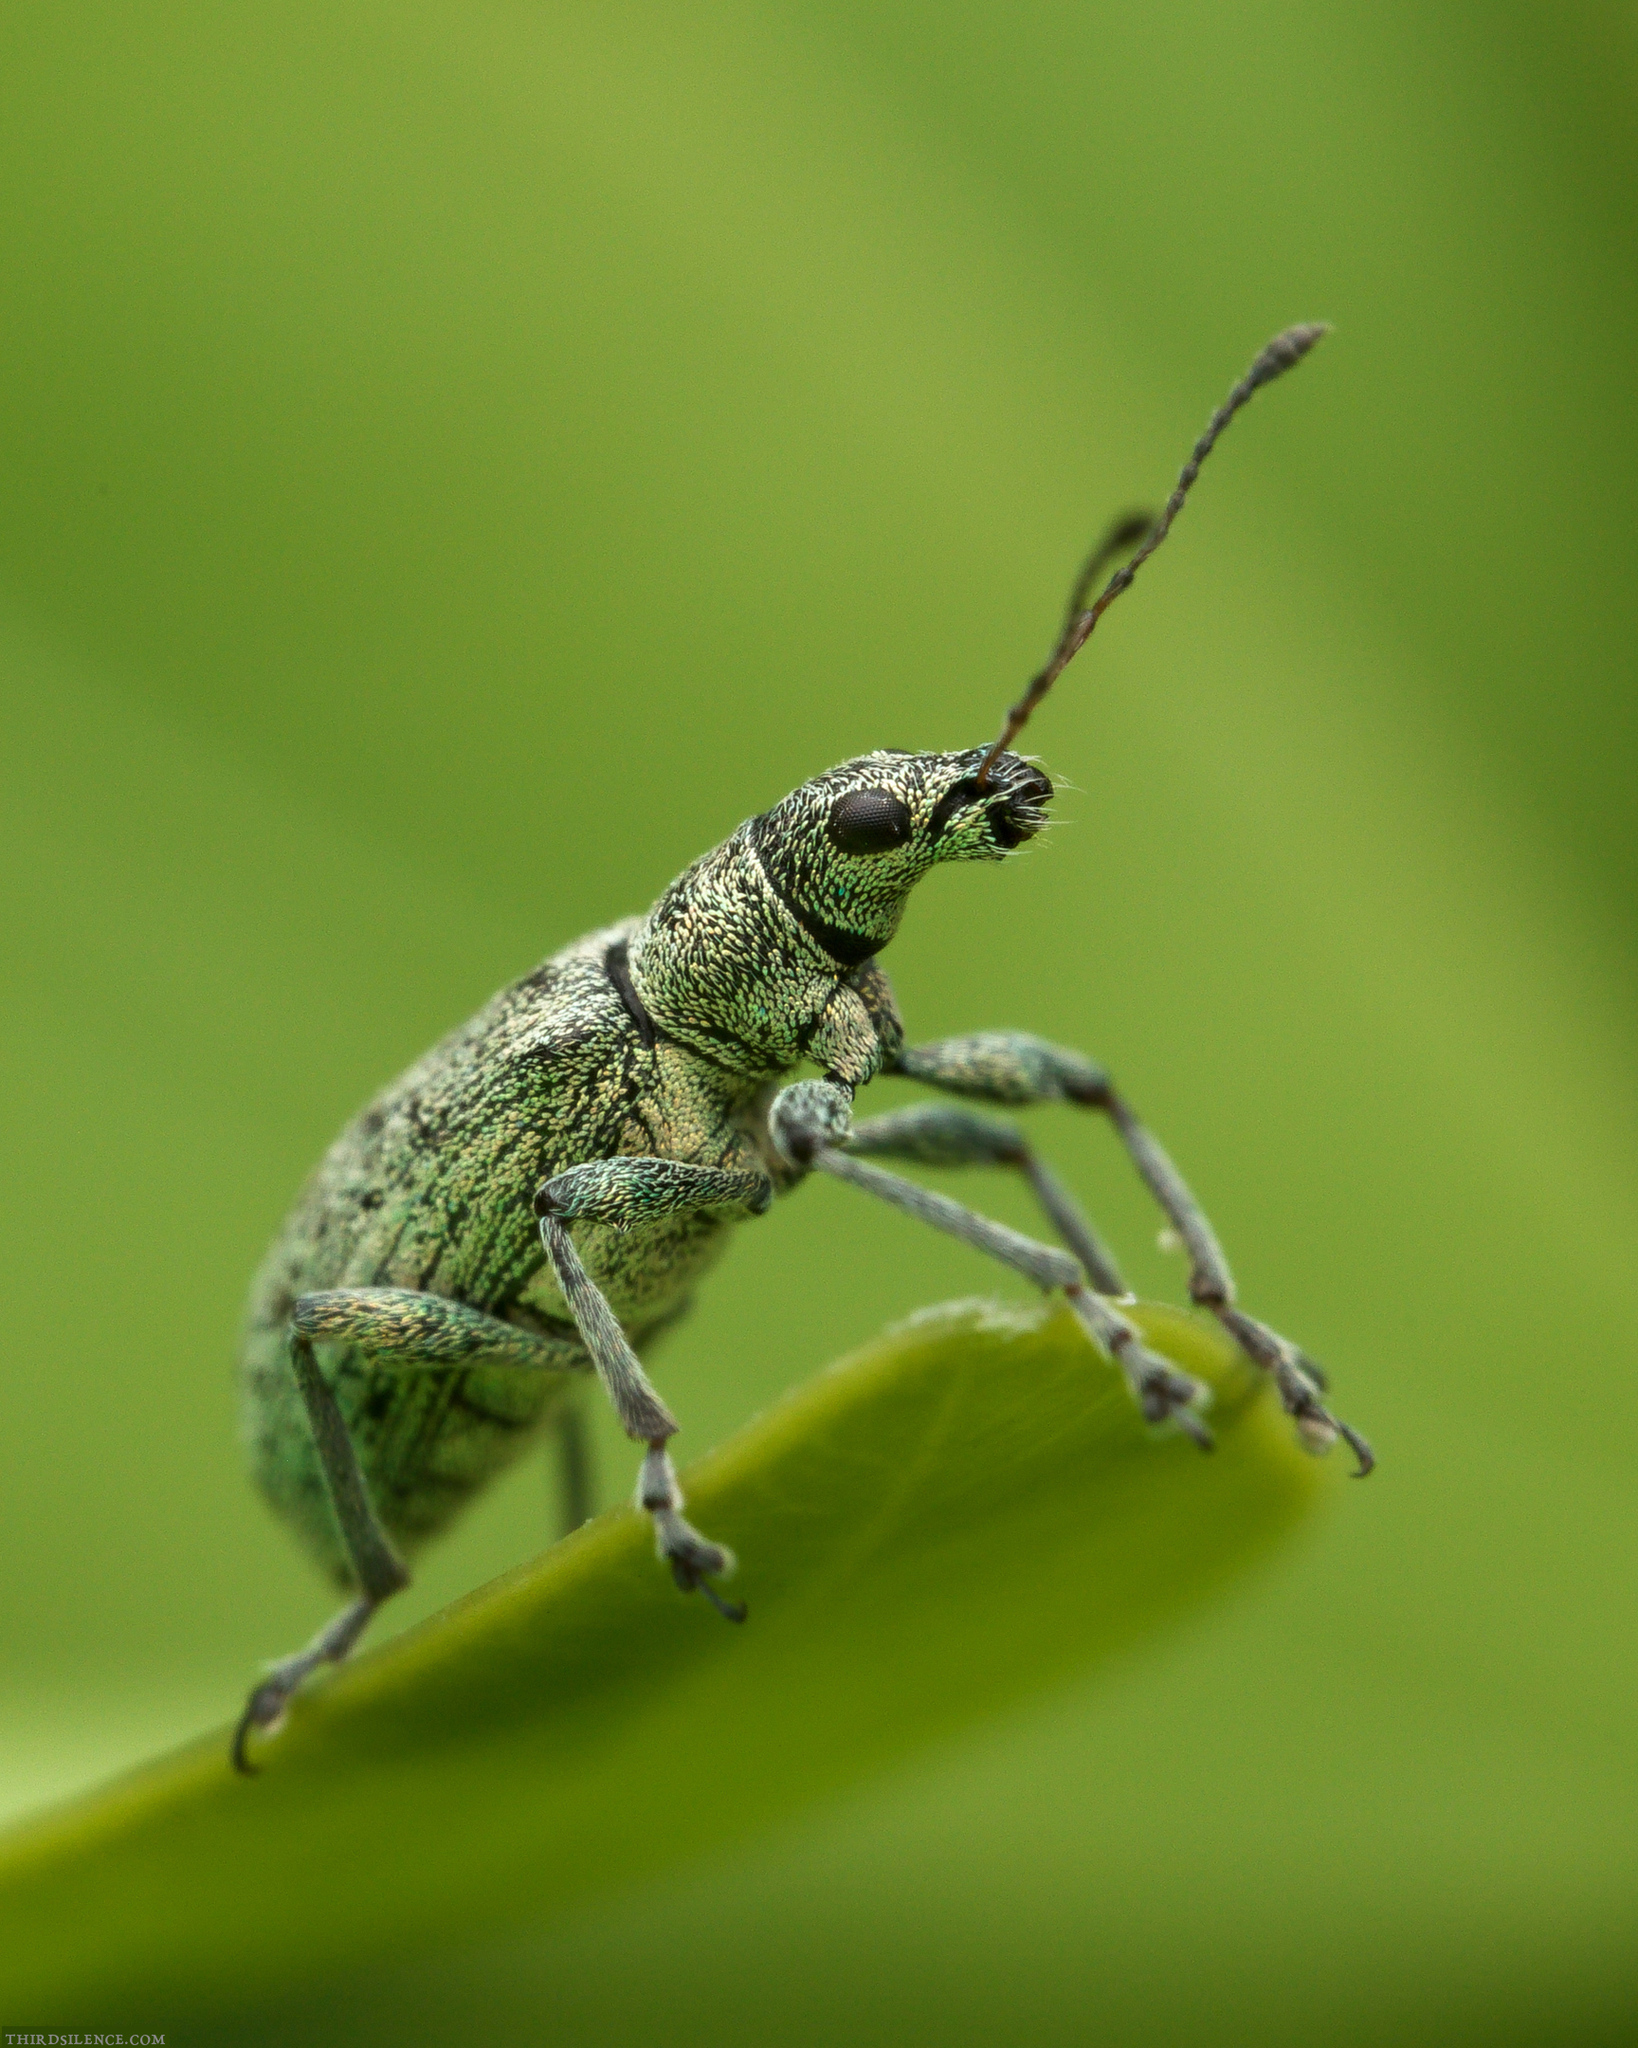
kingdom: Animalia
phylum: Arthropoda
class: Insecta
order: Coleoptera
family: Curculionidae
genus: Polydrusus
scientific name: Polydrusus cervinus
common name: Weevil
